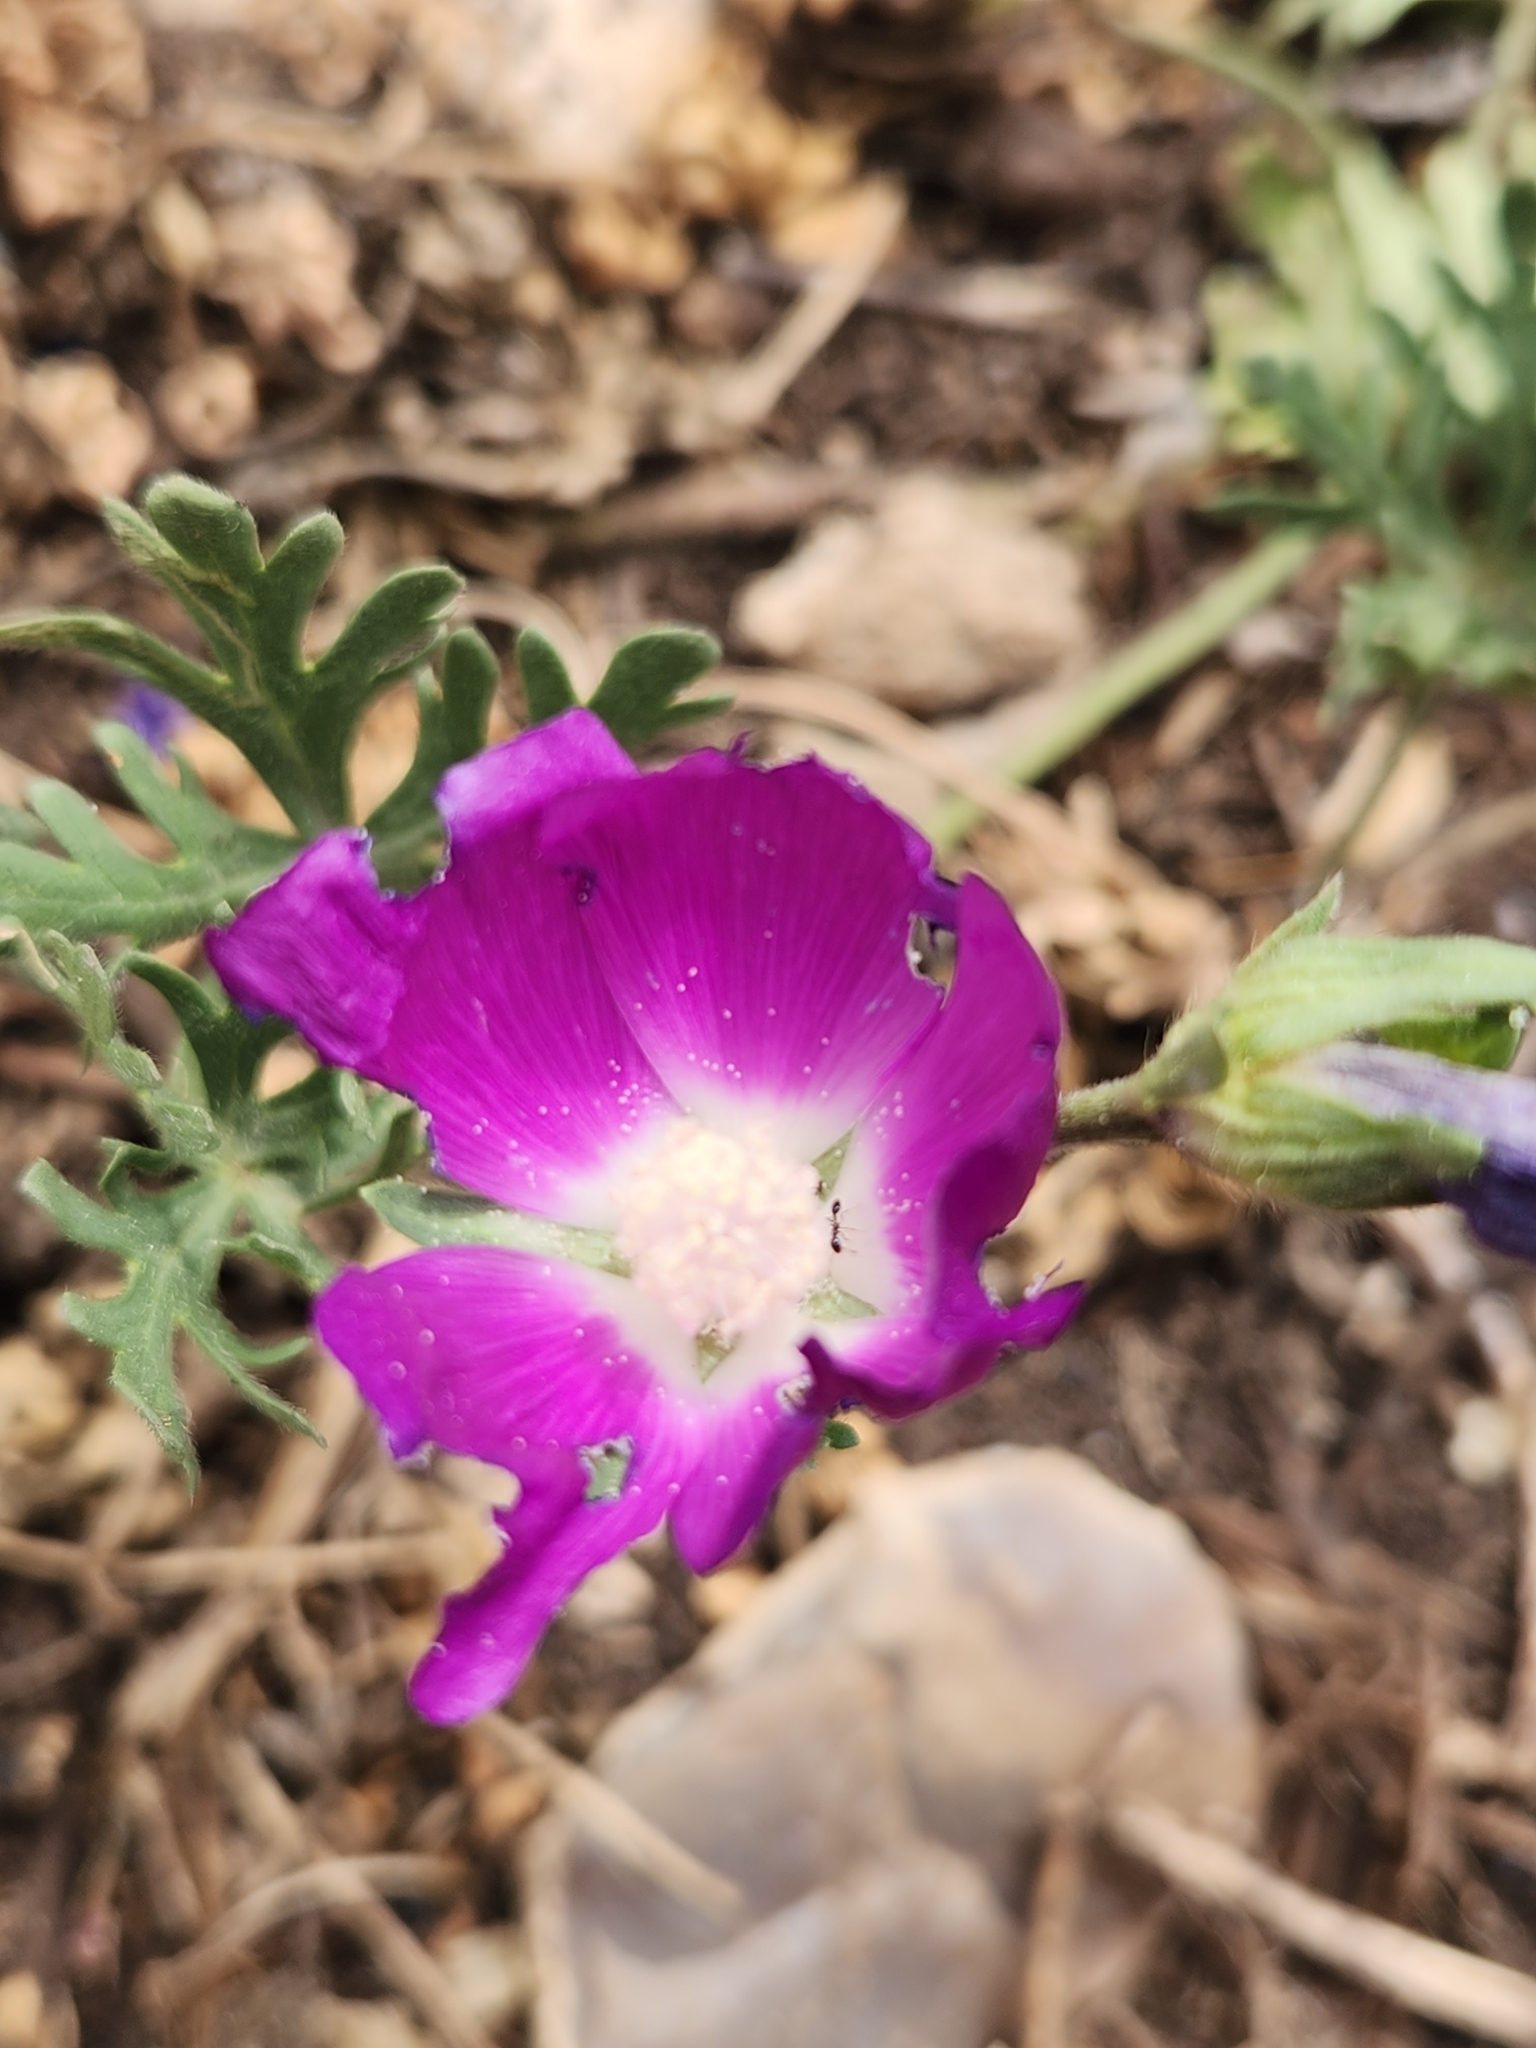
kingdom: Plantae
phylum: Tracheophyta
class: Magnoliopsida
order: Malvales
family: Malvaceae
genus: Callirhoe
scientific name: Callirhoe involucrata
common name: Purple poppy-mallow
